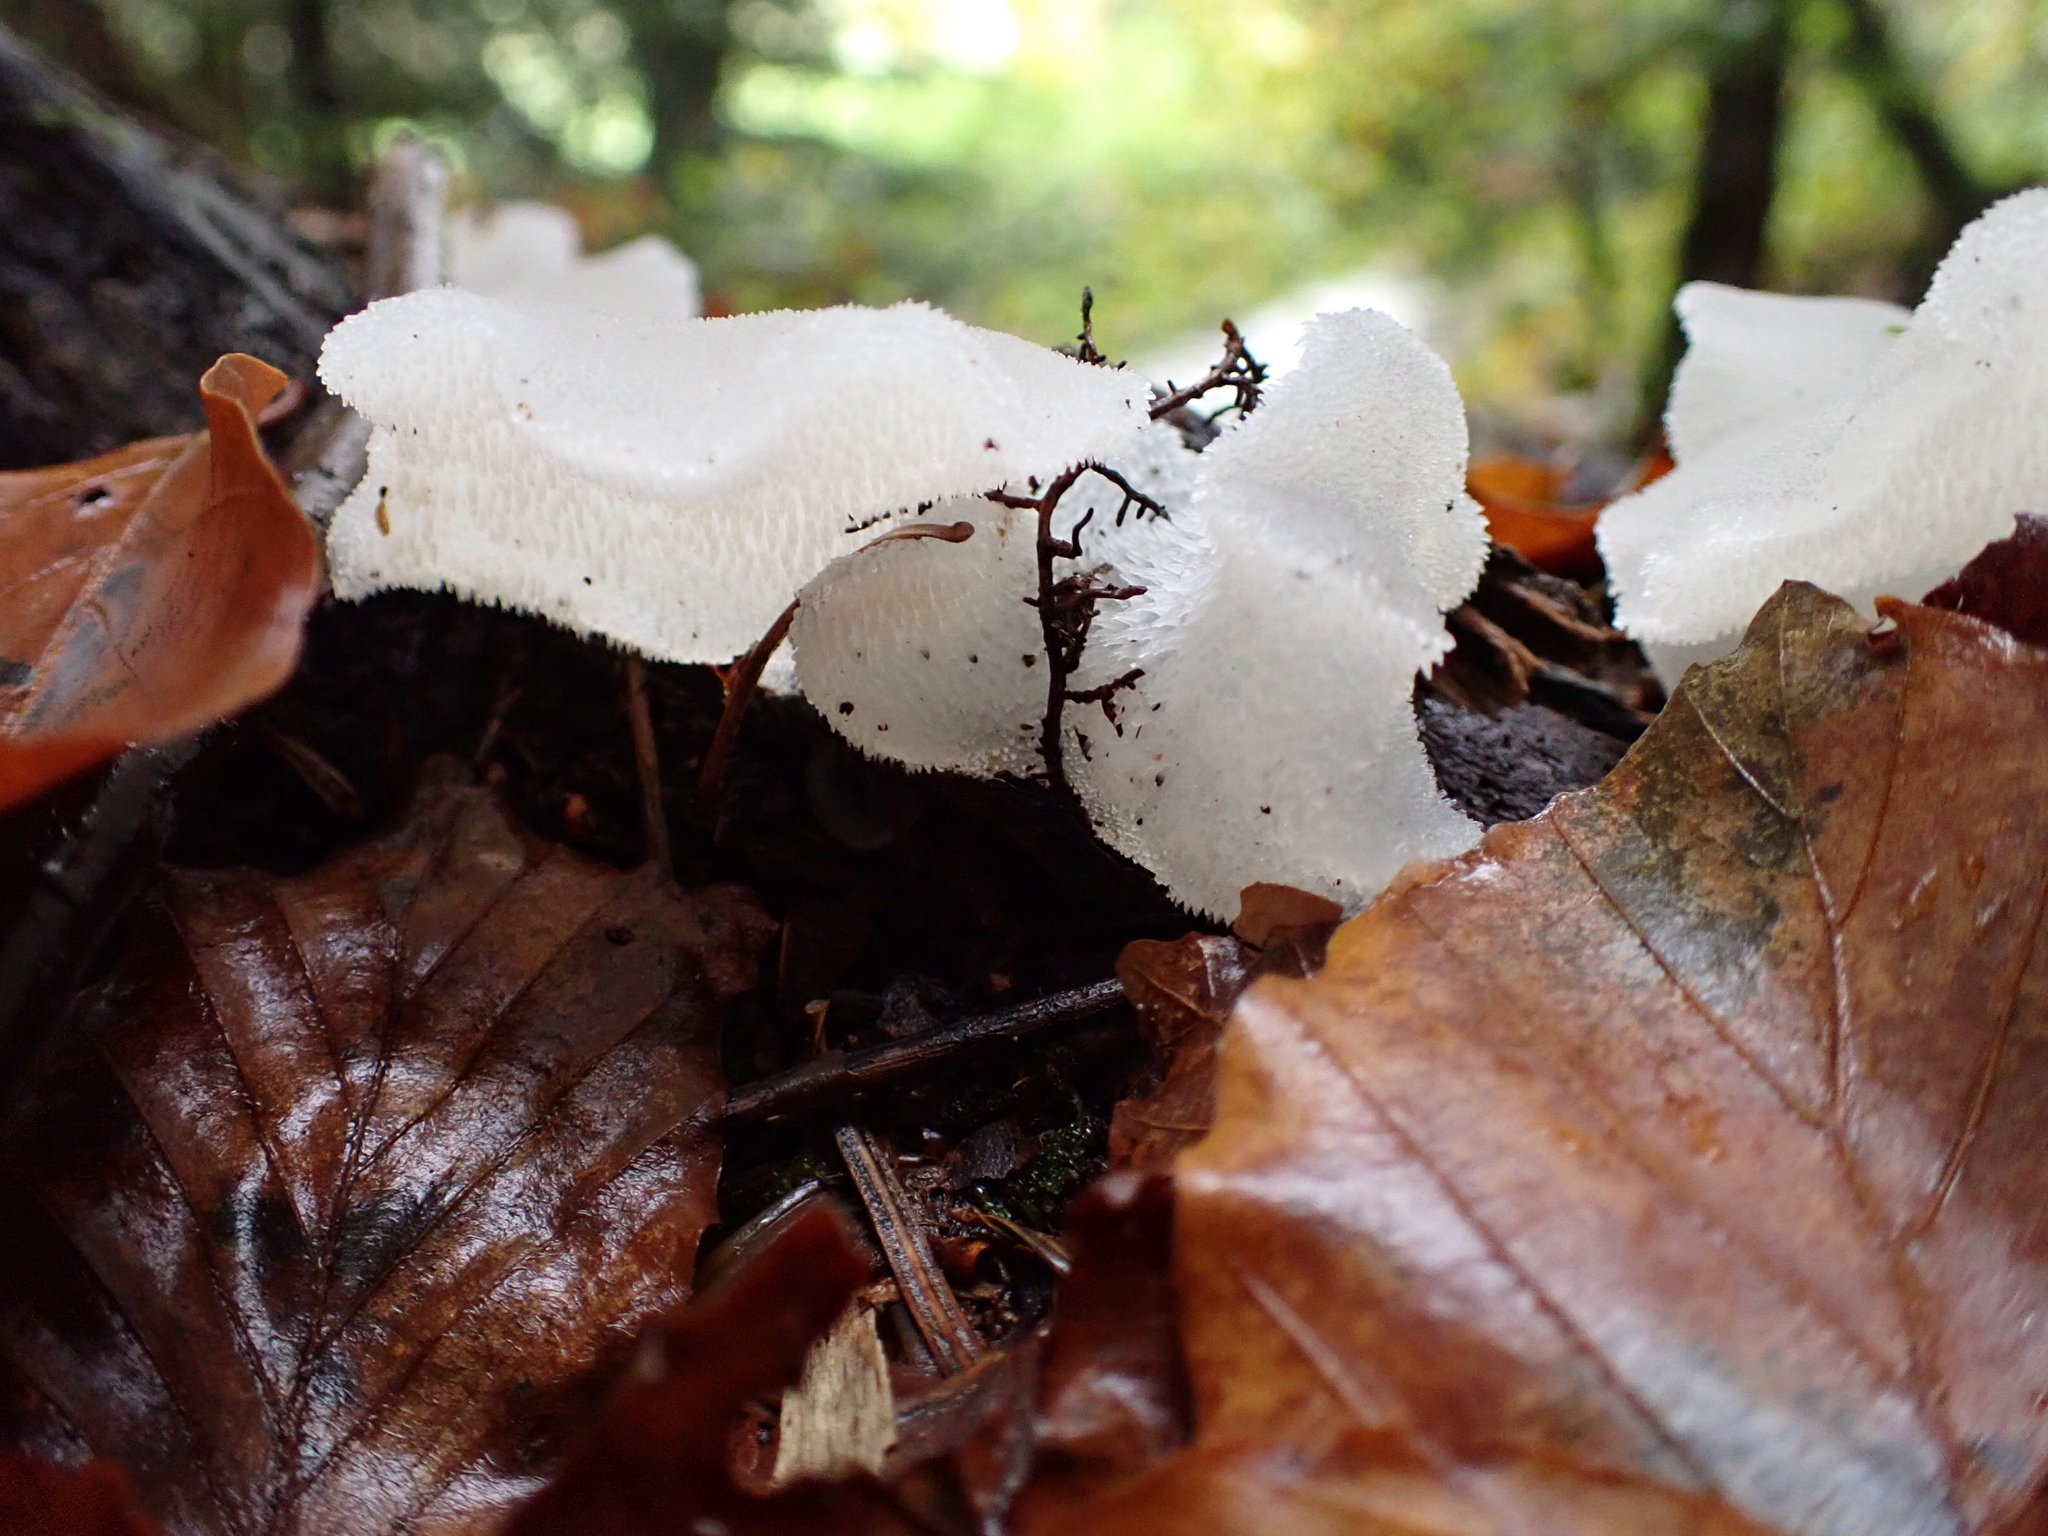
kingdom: Fungi
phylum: Basidiomycota
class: Agaricomycetes
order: Auriculariales
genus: Pseudohydnum
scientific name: Pseudohydnum gelatinosum
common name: Jelly tongue
